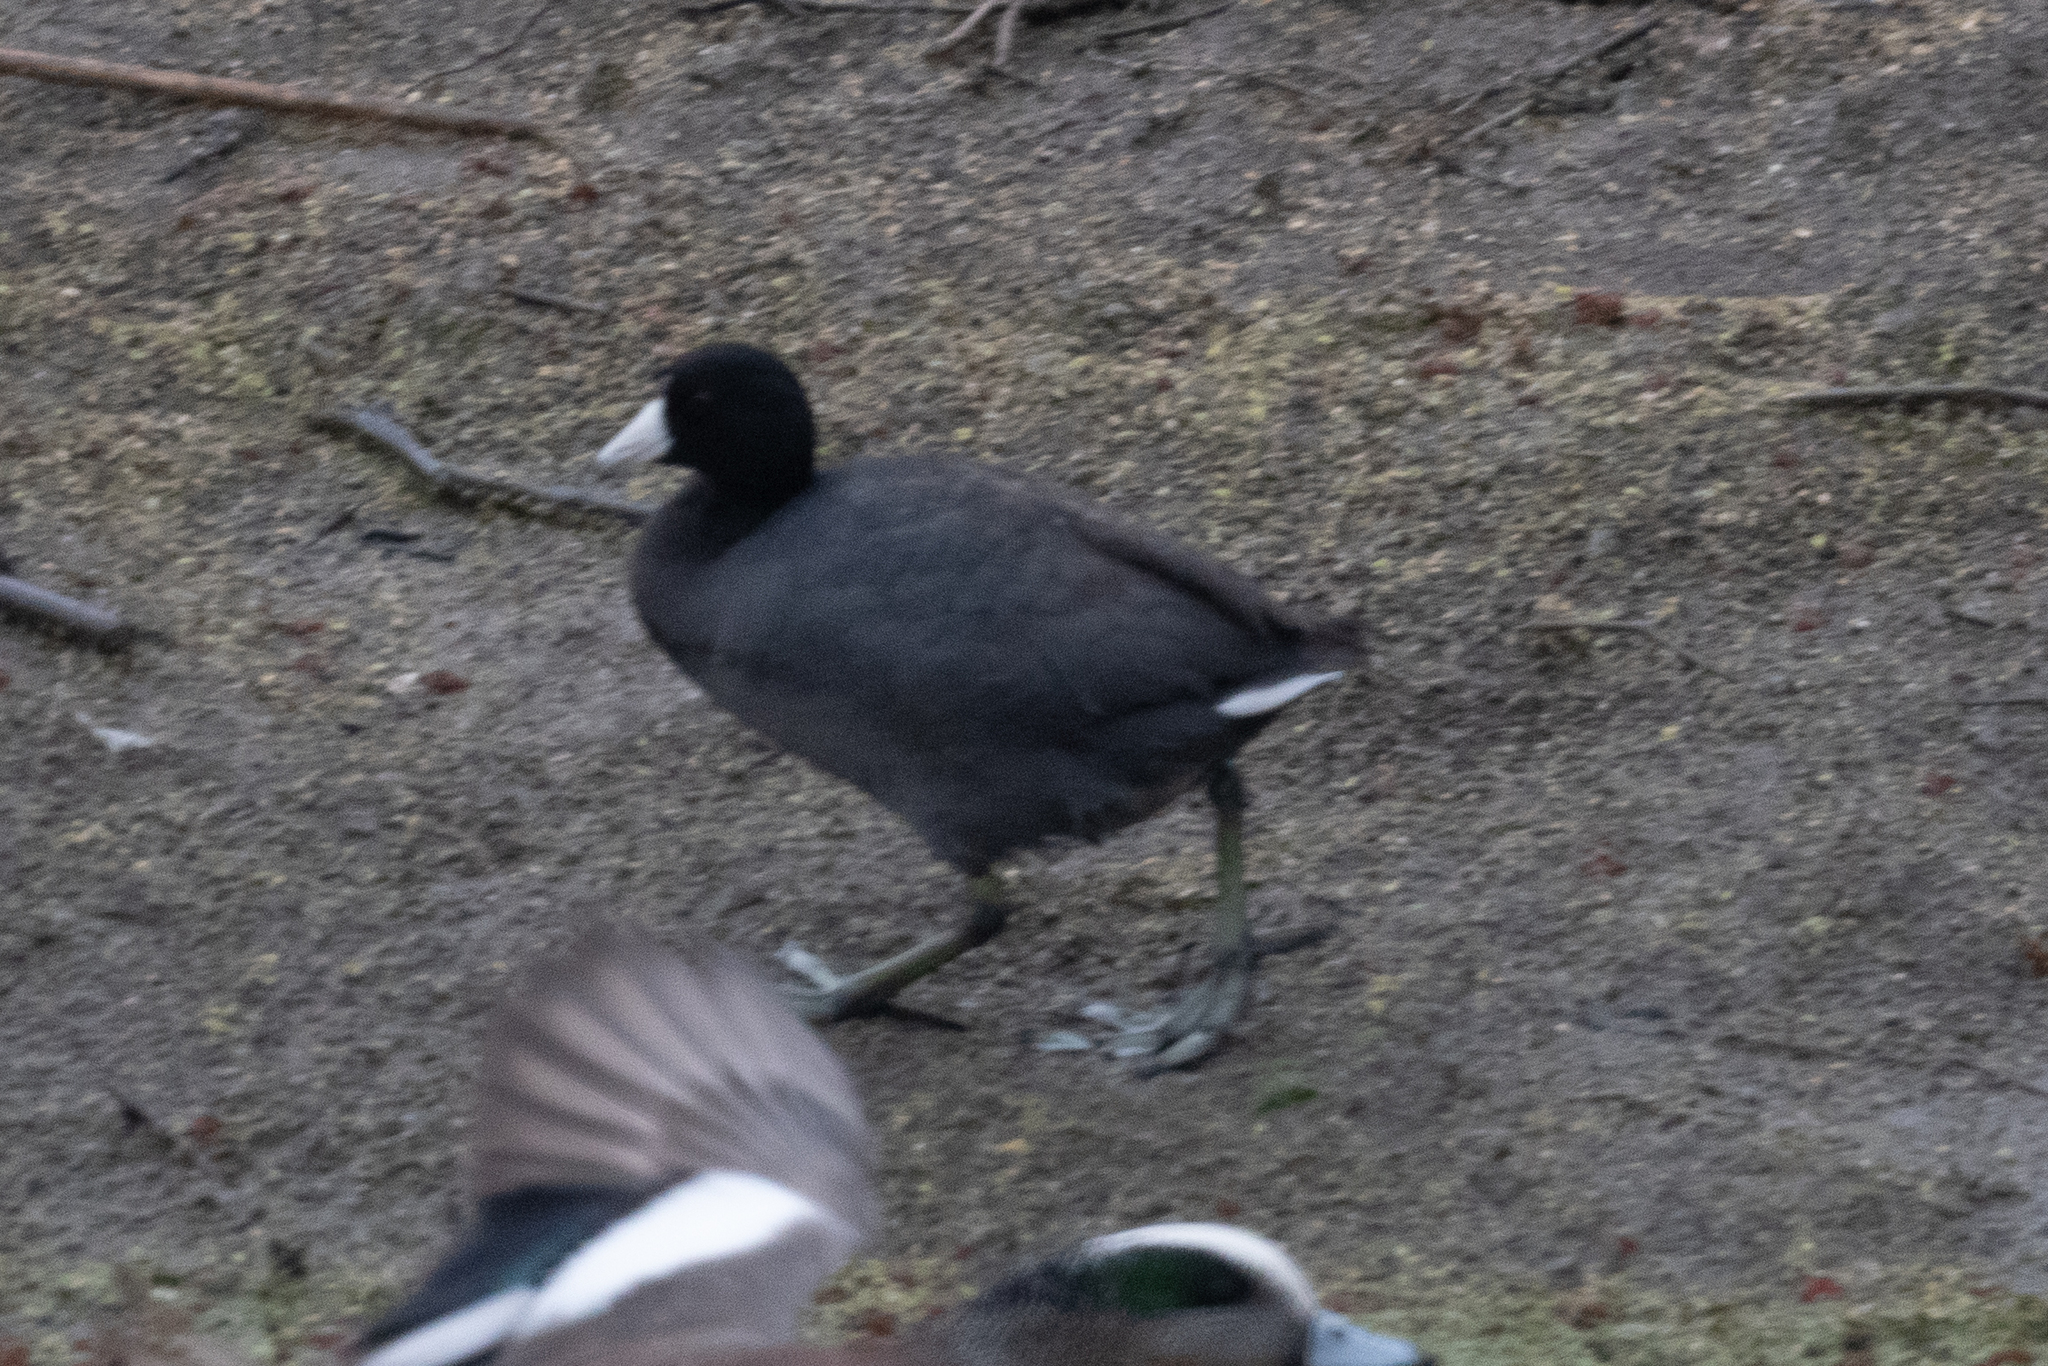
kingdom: Animalia
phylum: Chordata
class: Aves
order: Gruiformes
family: Rallidae
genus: Fulica
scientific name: Fulica americana
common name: American coot
